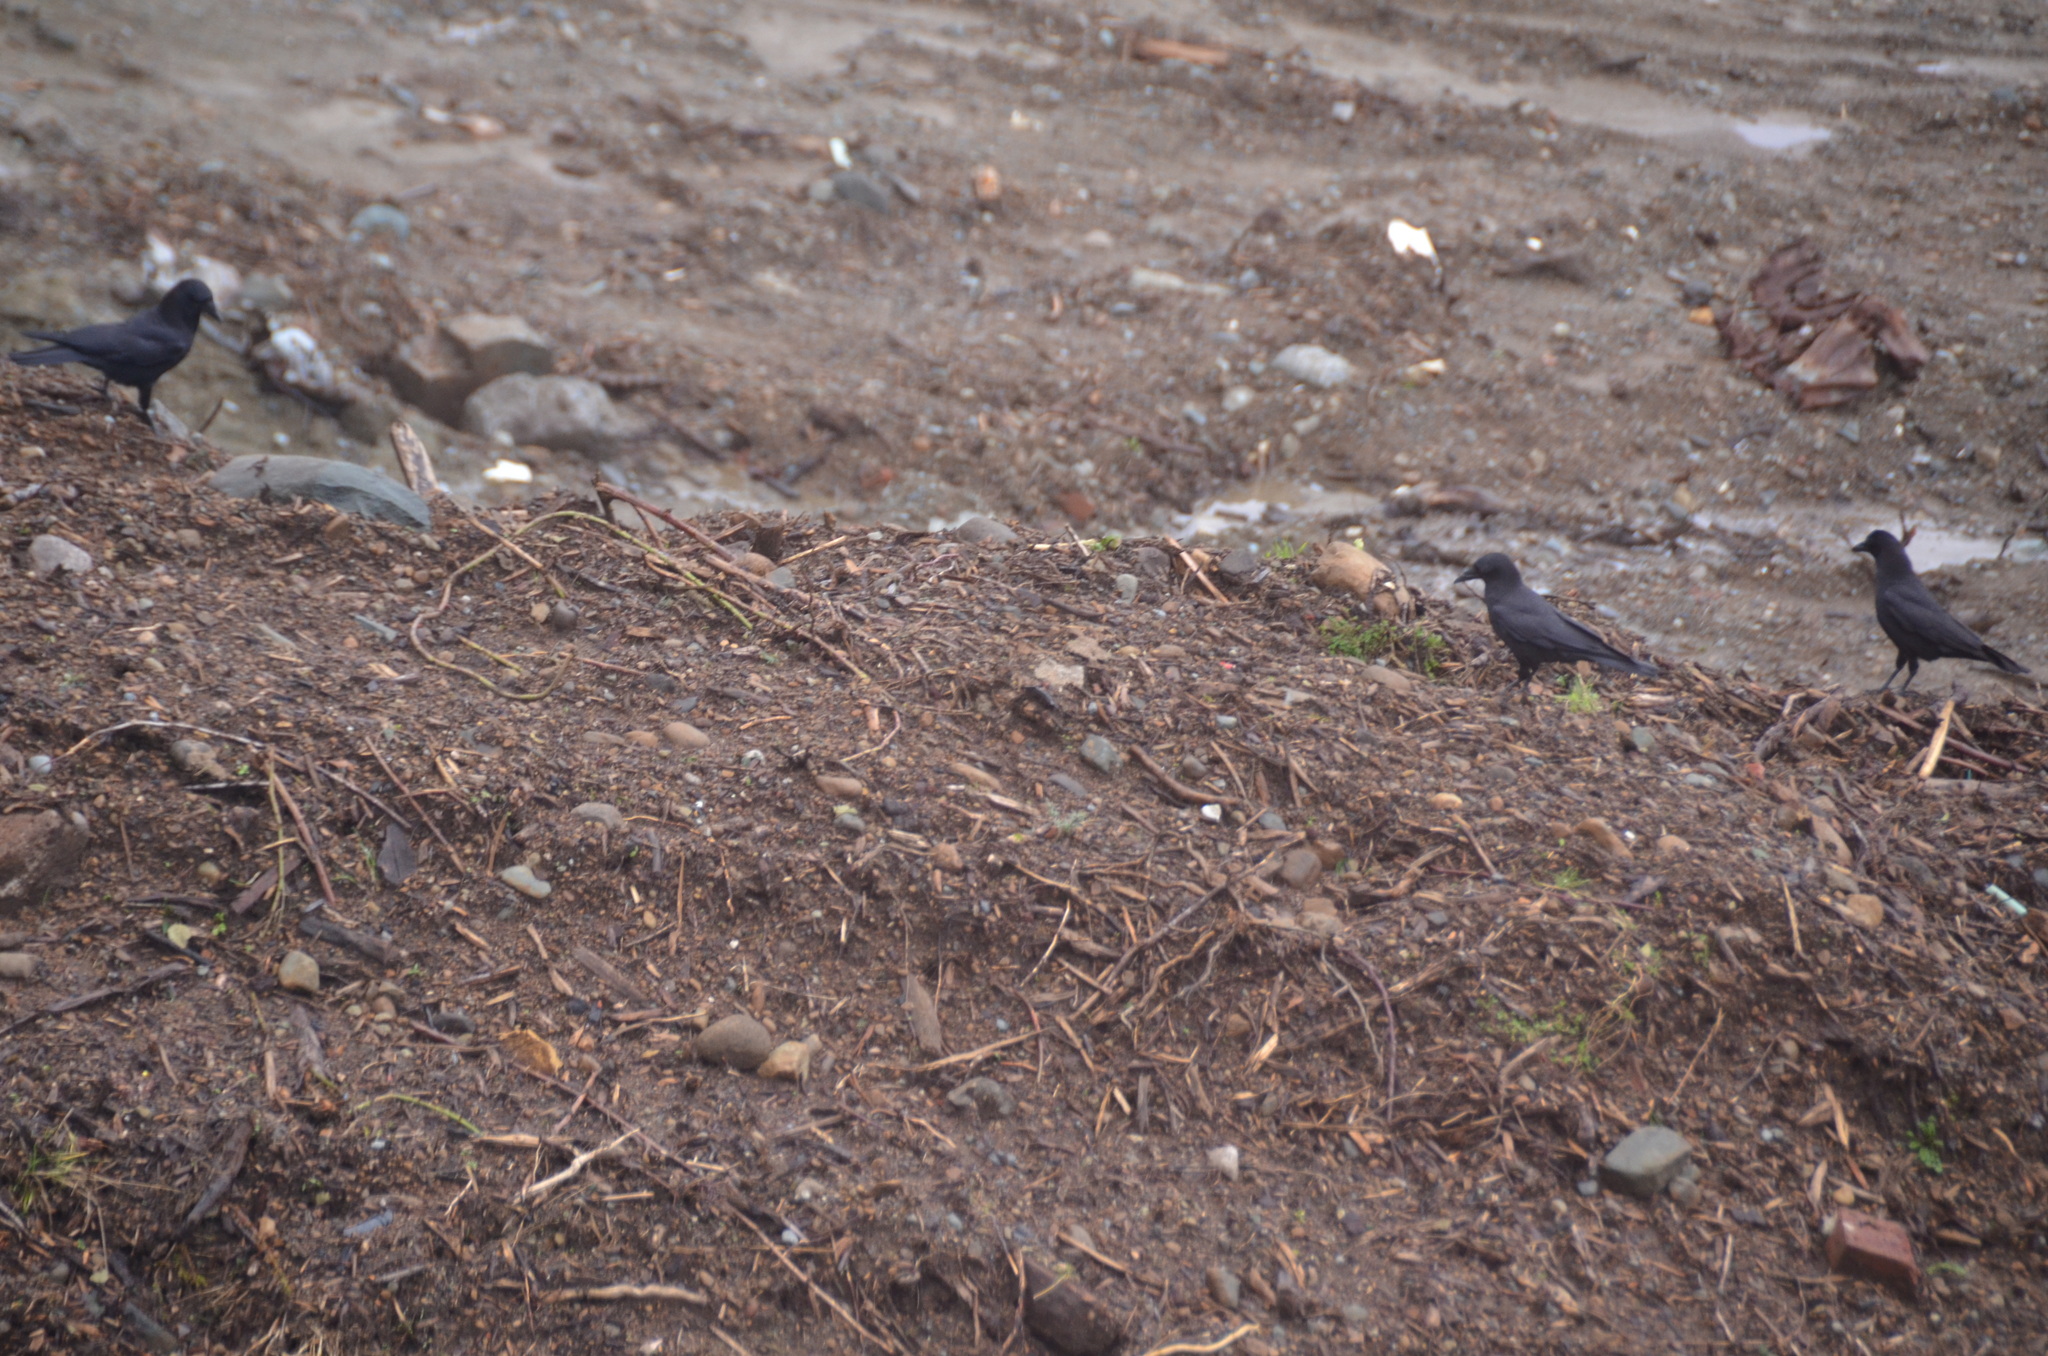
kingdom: Animalia
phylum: Chordata
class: Aves
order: Passeriformes
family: Corvidae
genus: Corvus
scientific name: Corvus brachyrhynchos
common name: American crow
